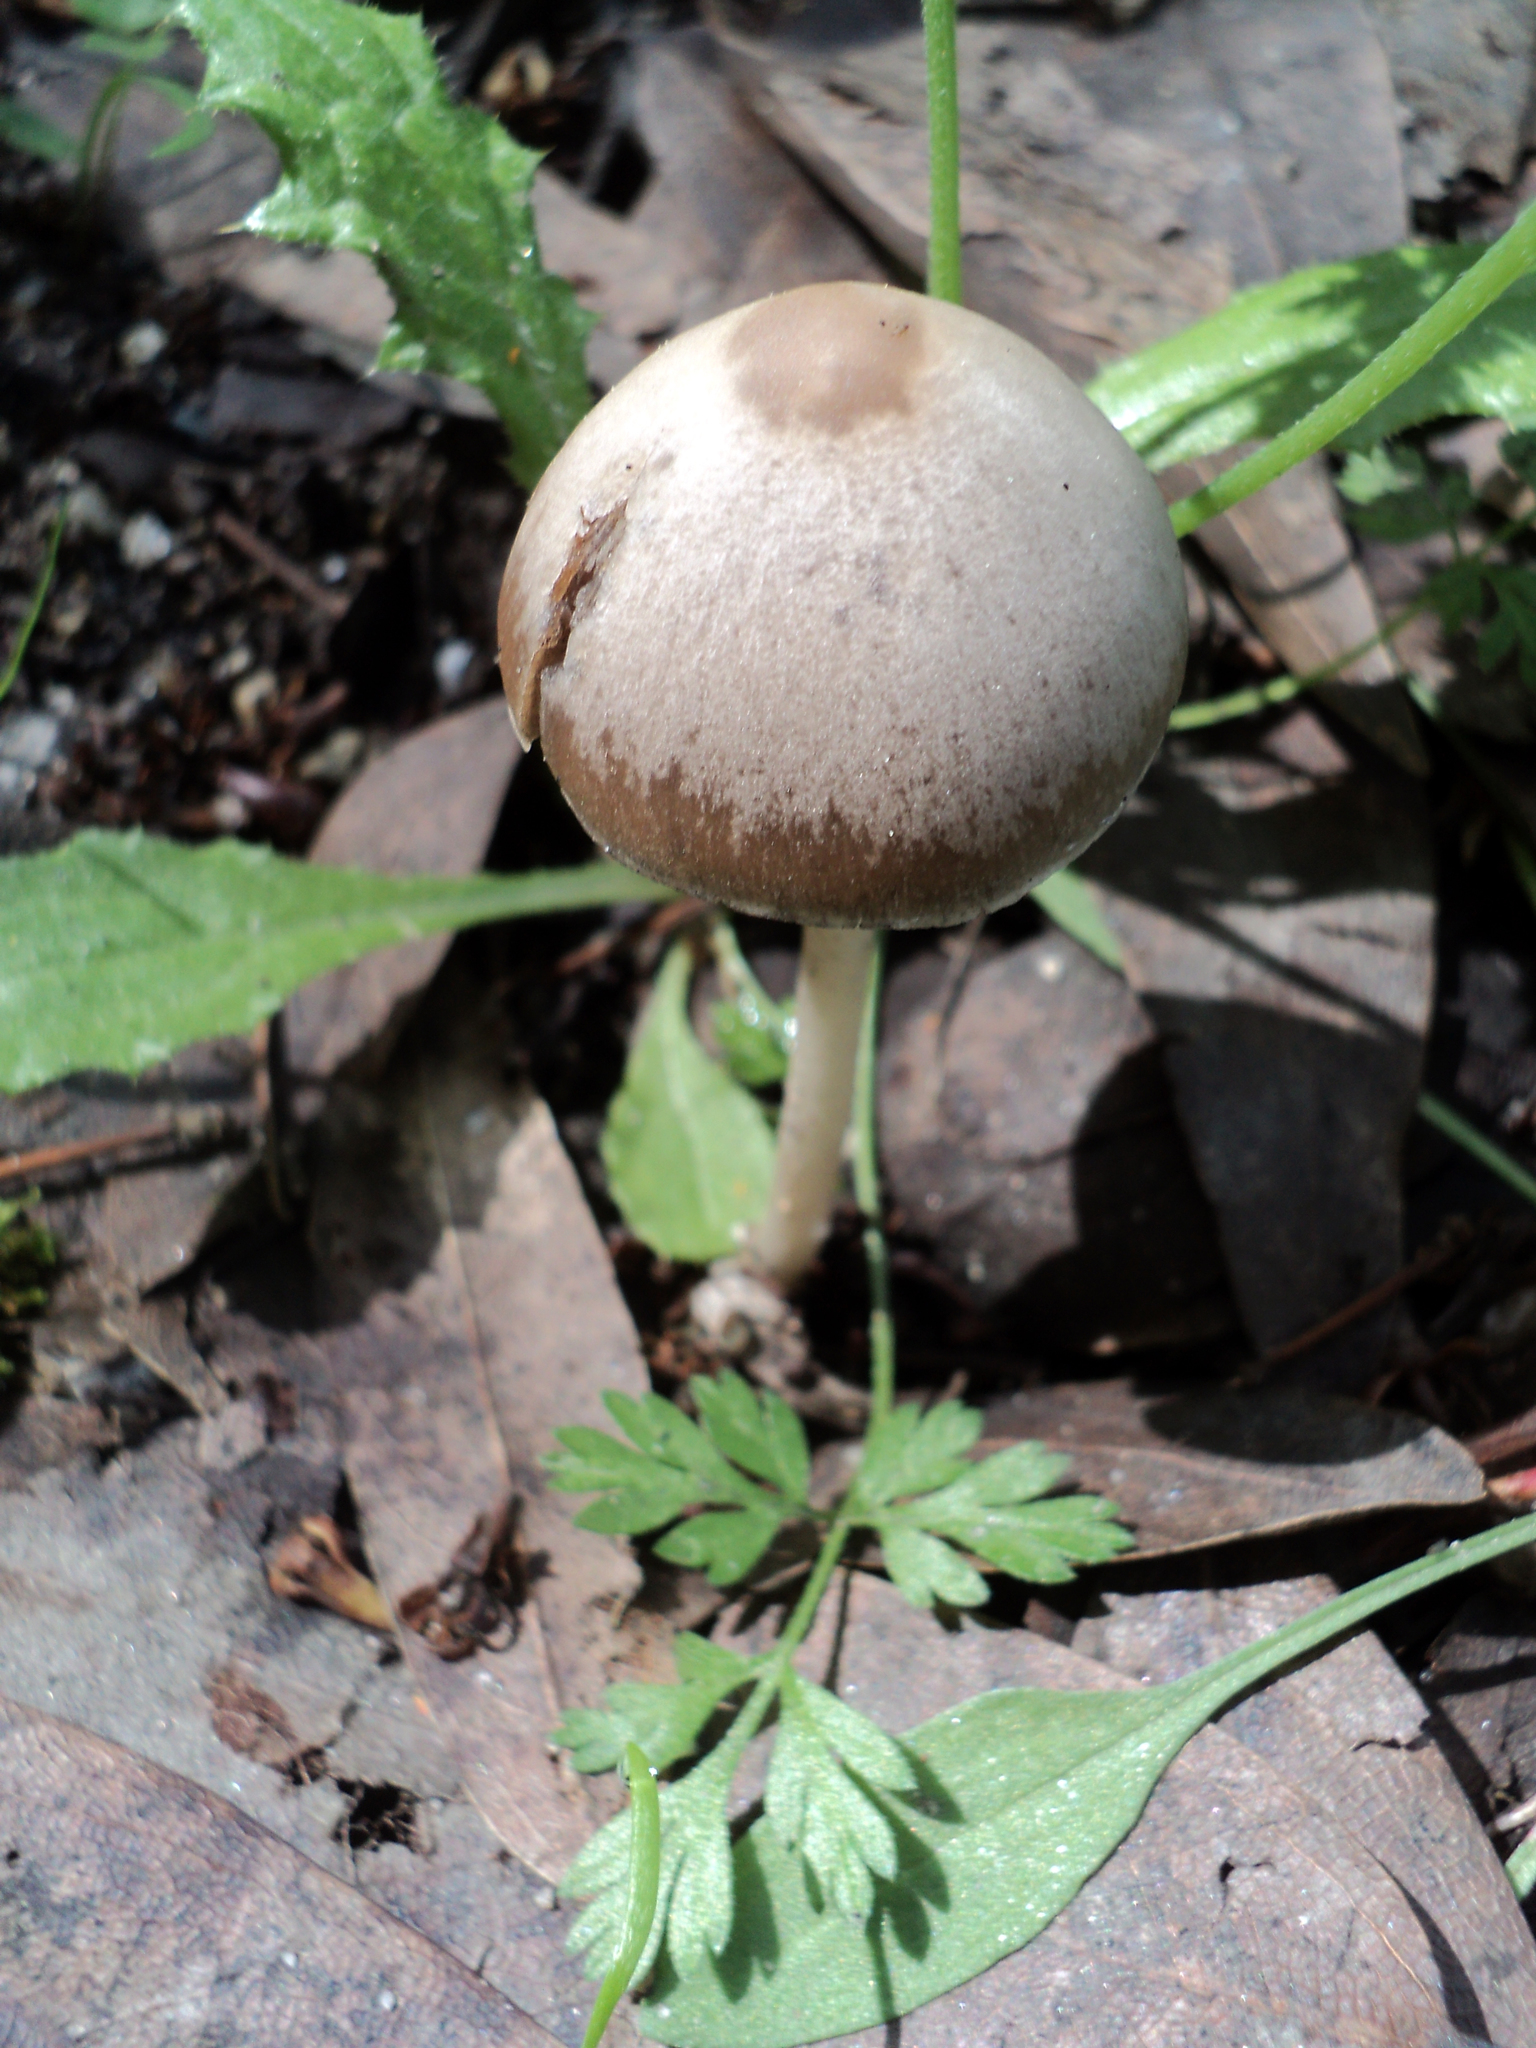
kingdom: Fungi
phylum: Basidiomycota
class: Agaricomycetes
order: Agaricales
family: Psathyrellaceae
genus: Psathyrella
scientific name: Psathyrella longipes
